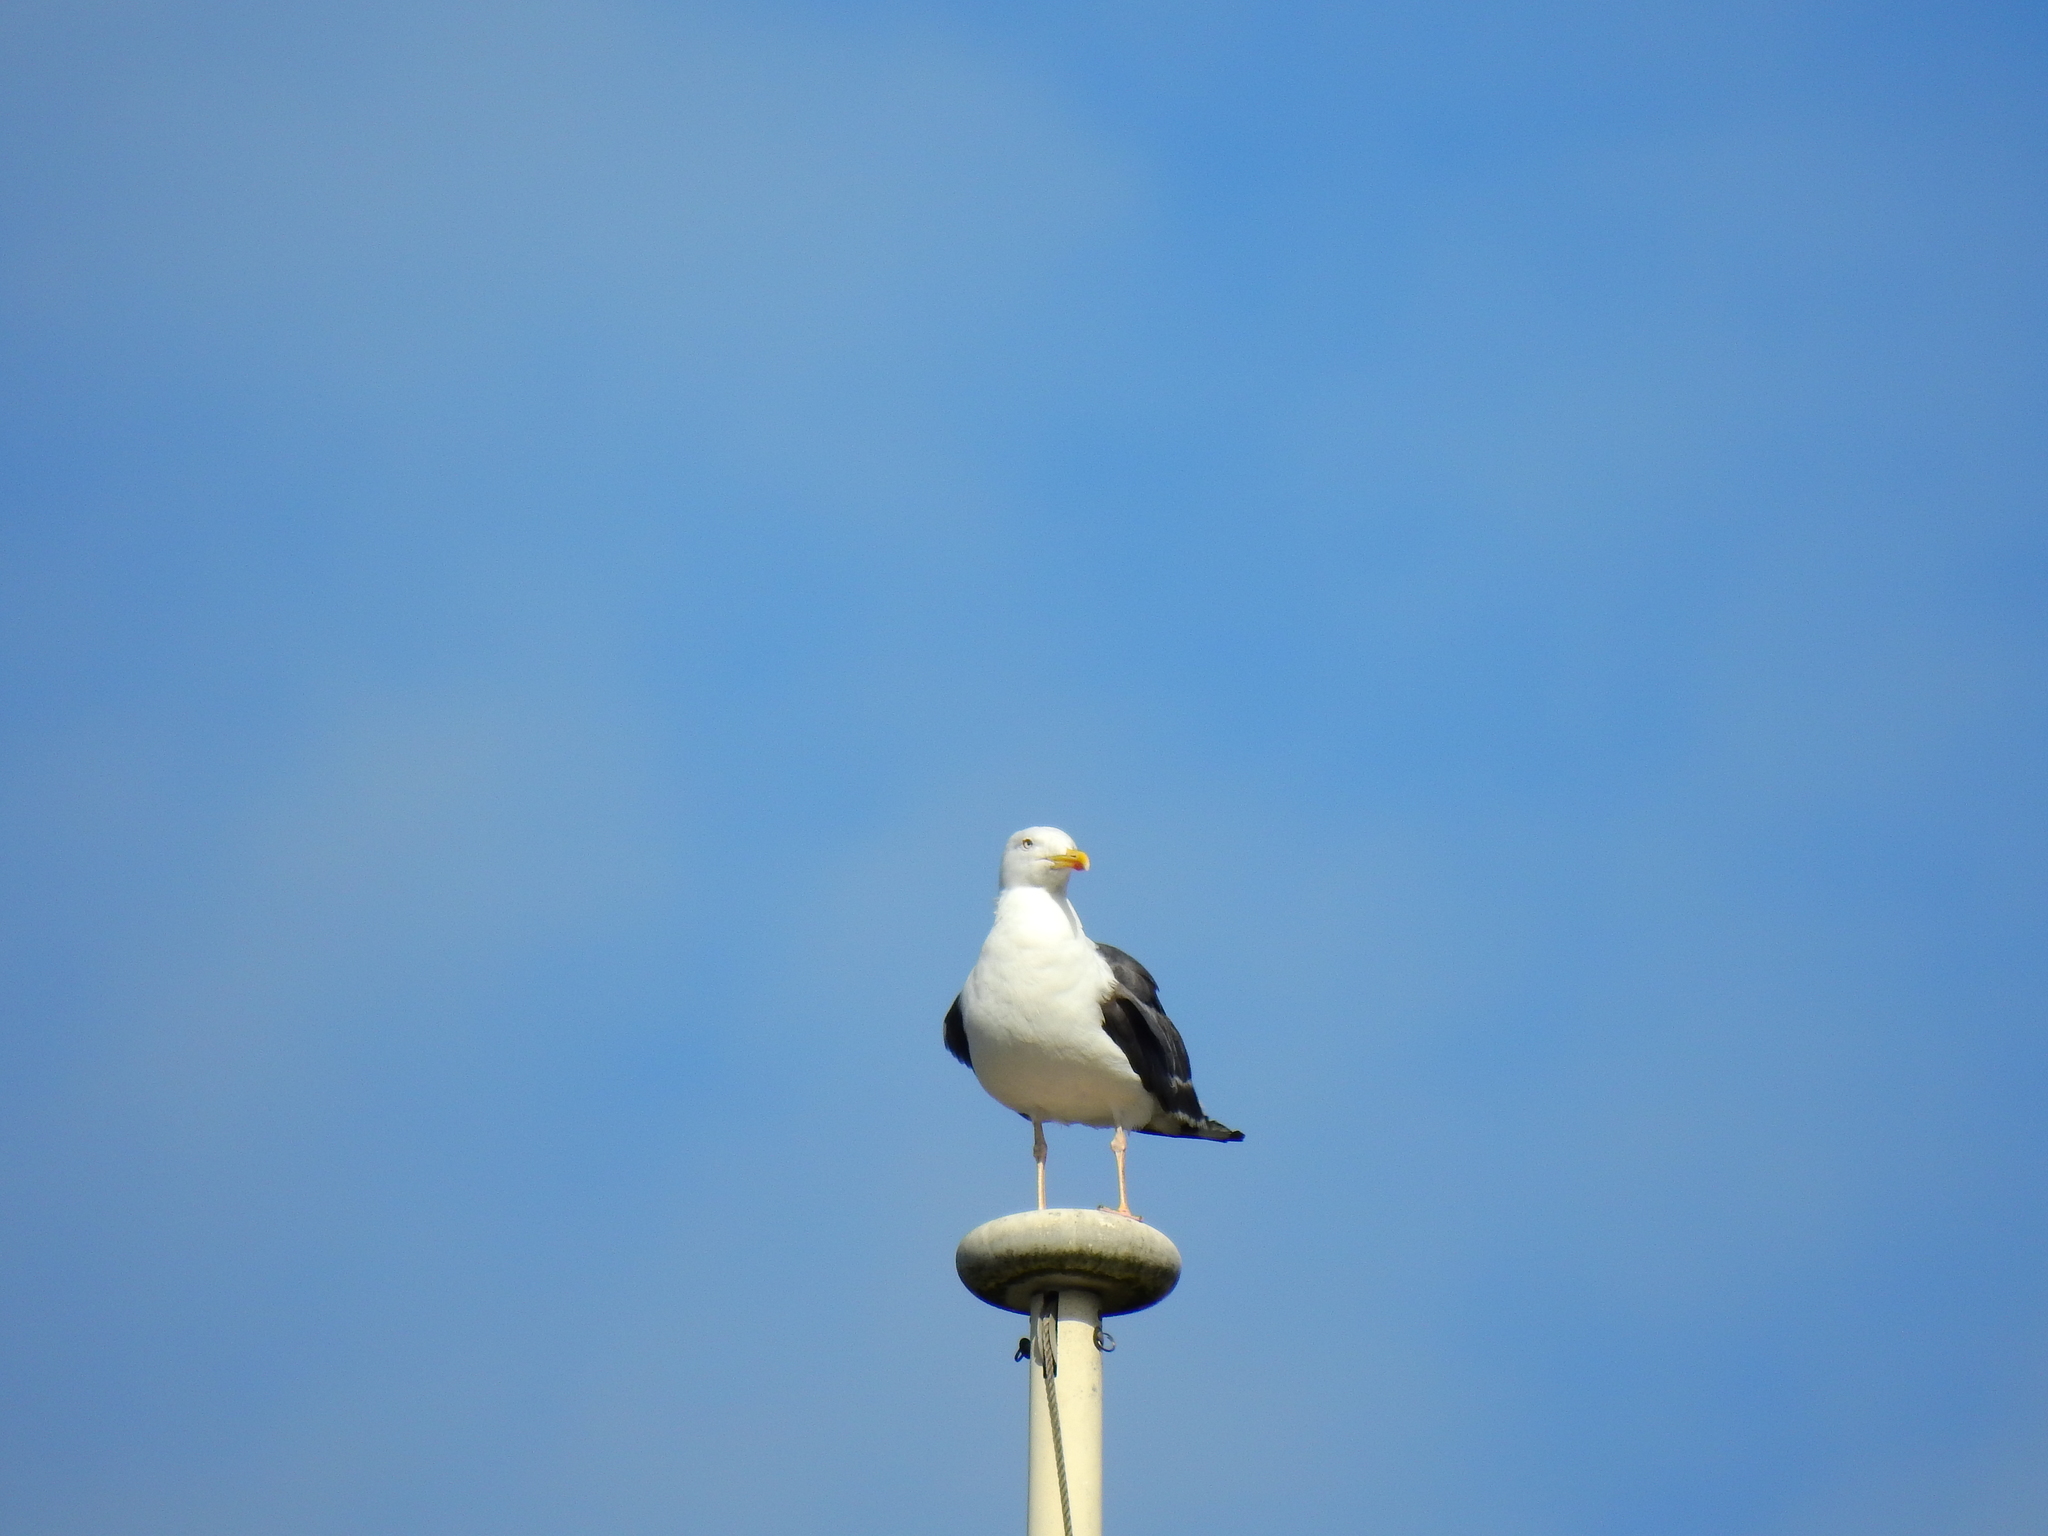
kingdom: Animalia
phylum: Chordata
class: Aves
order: Charadriiformes
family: Laridae
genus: Larus
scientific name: Larus marinus
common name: Great black-backed gull
